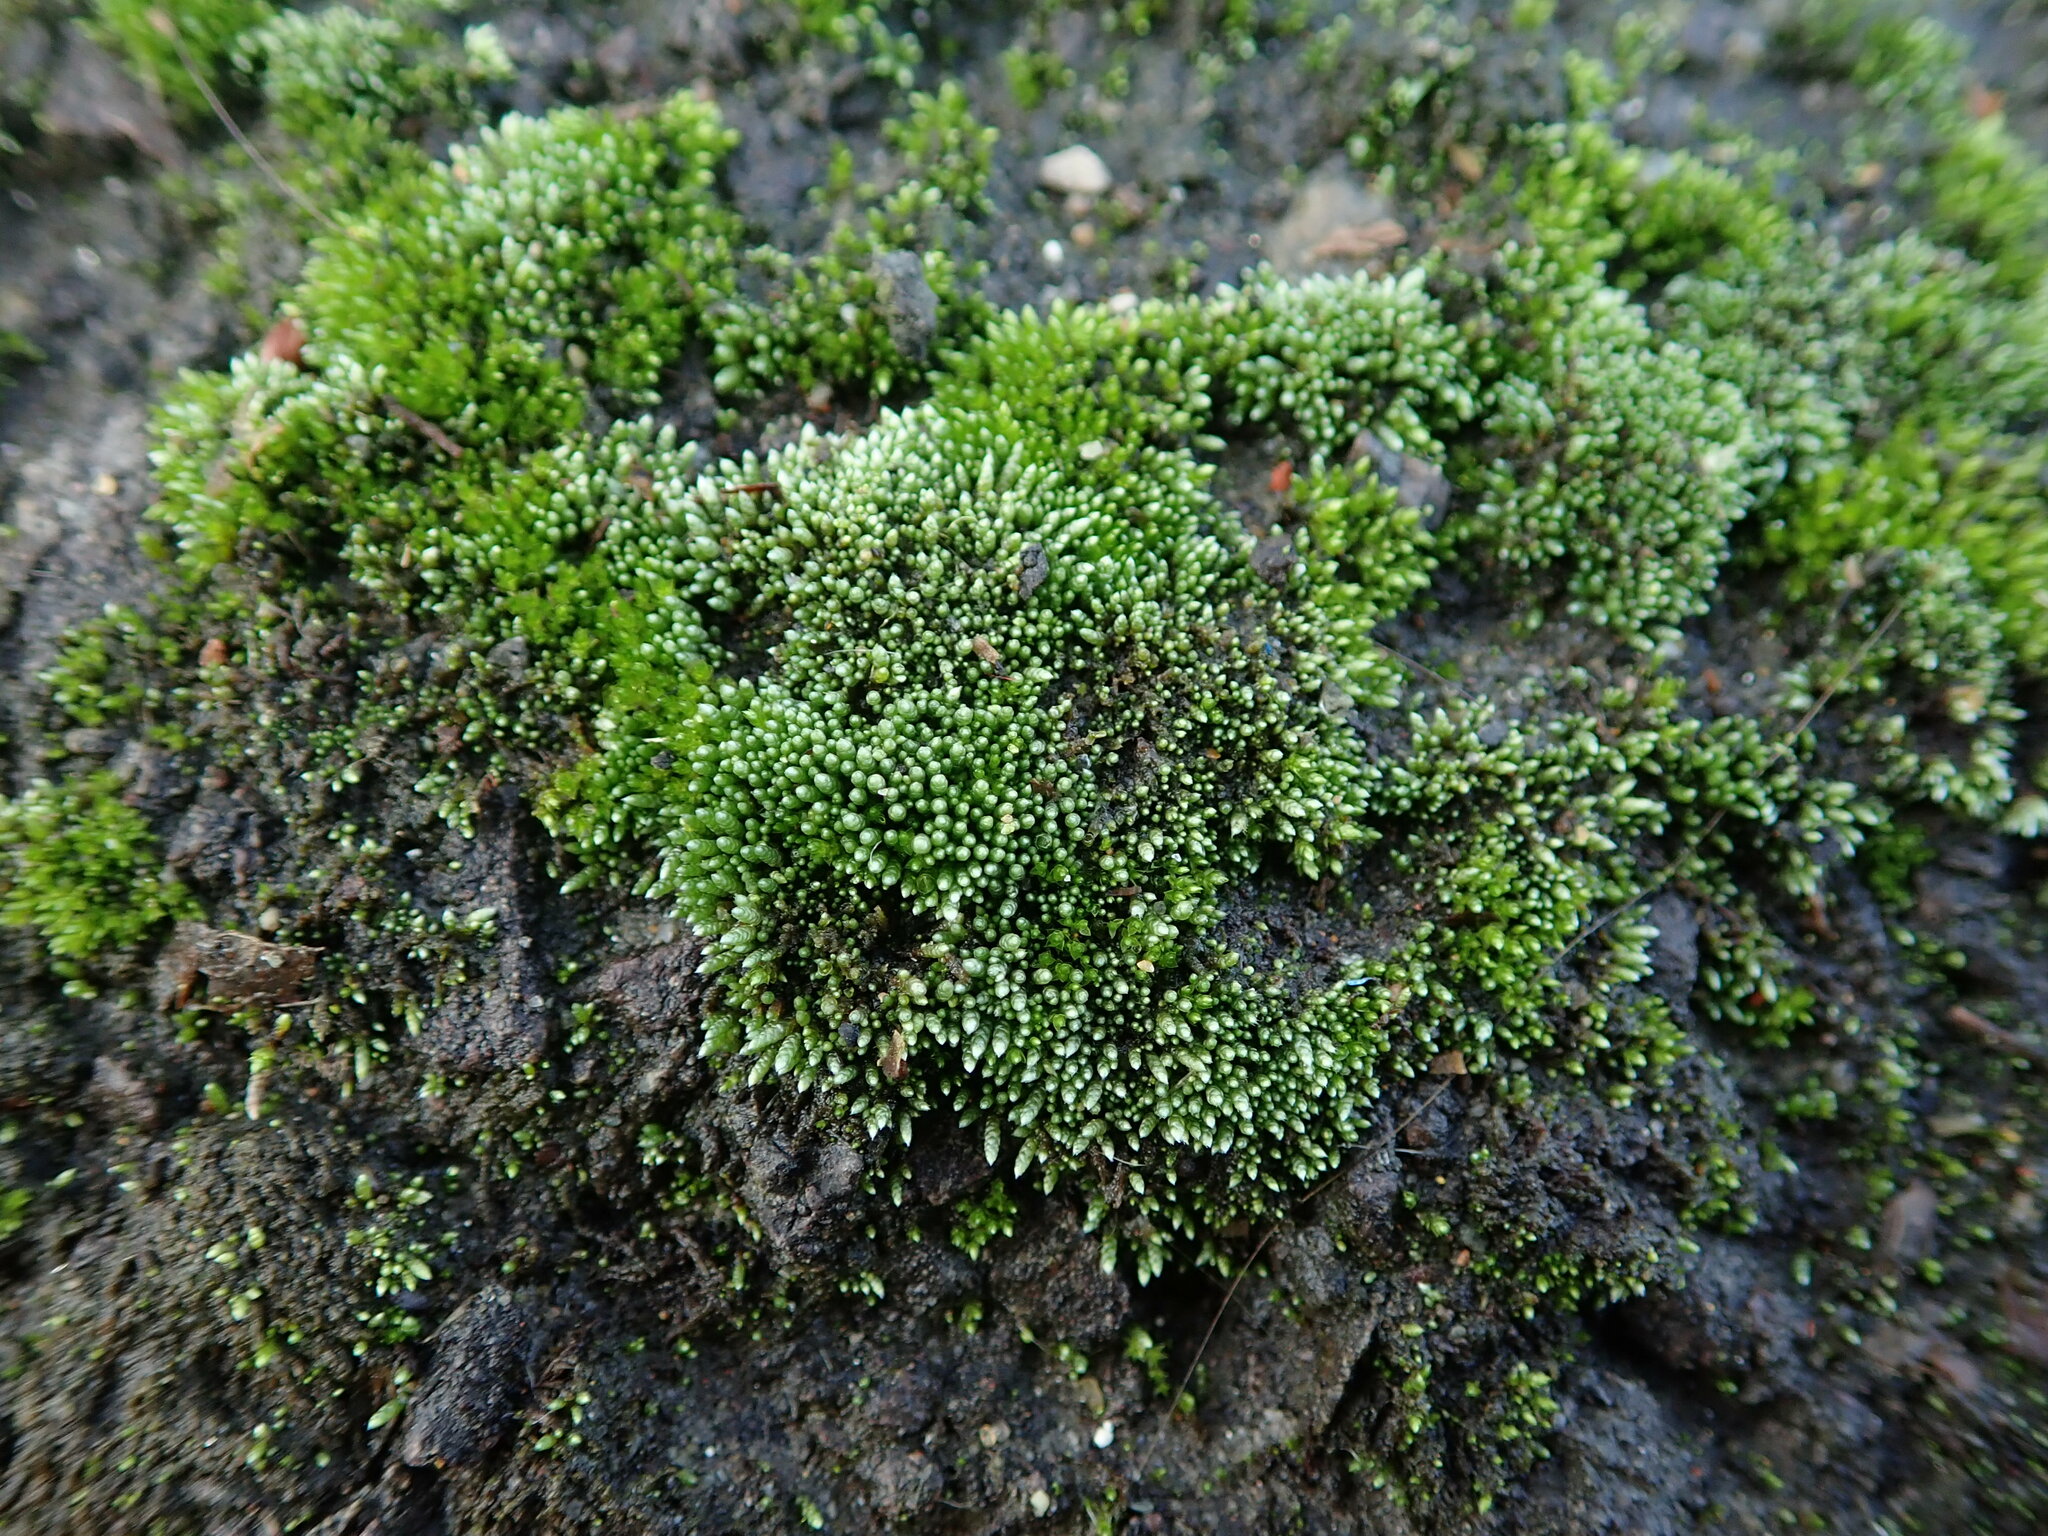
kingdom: Plantae
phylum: Bryophyta
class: Bryopsida
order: Bryales
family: Bryaceae
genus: Bryum
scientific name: Bryum argenteum
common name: Silver-moss
